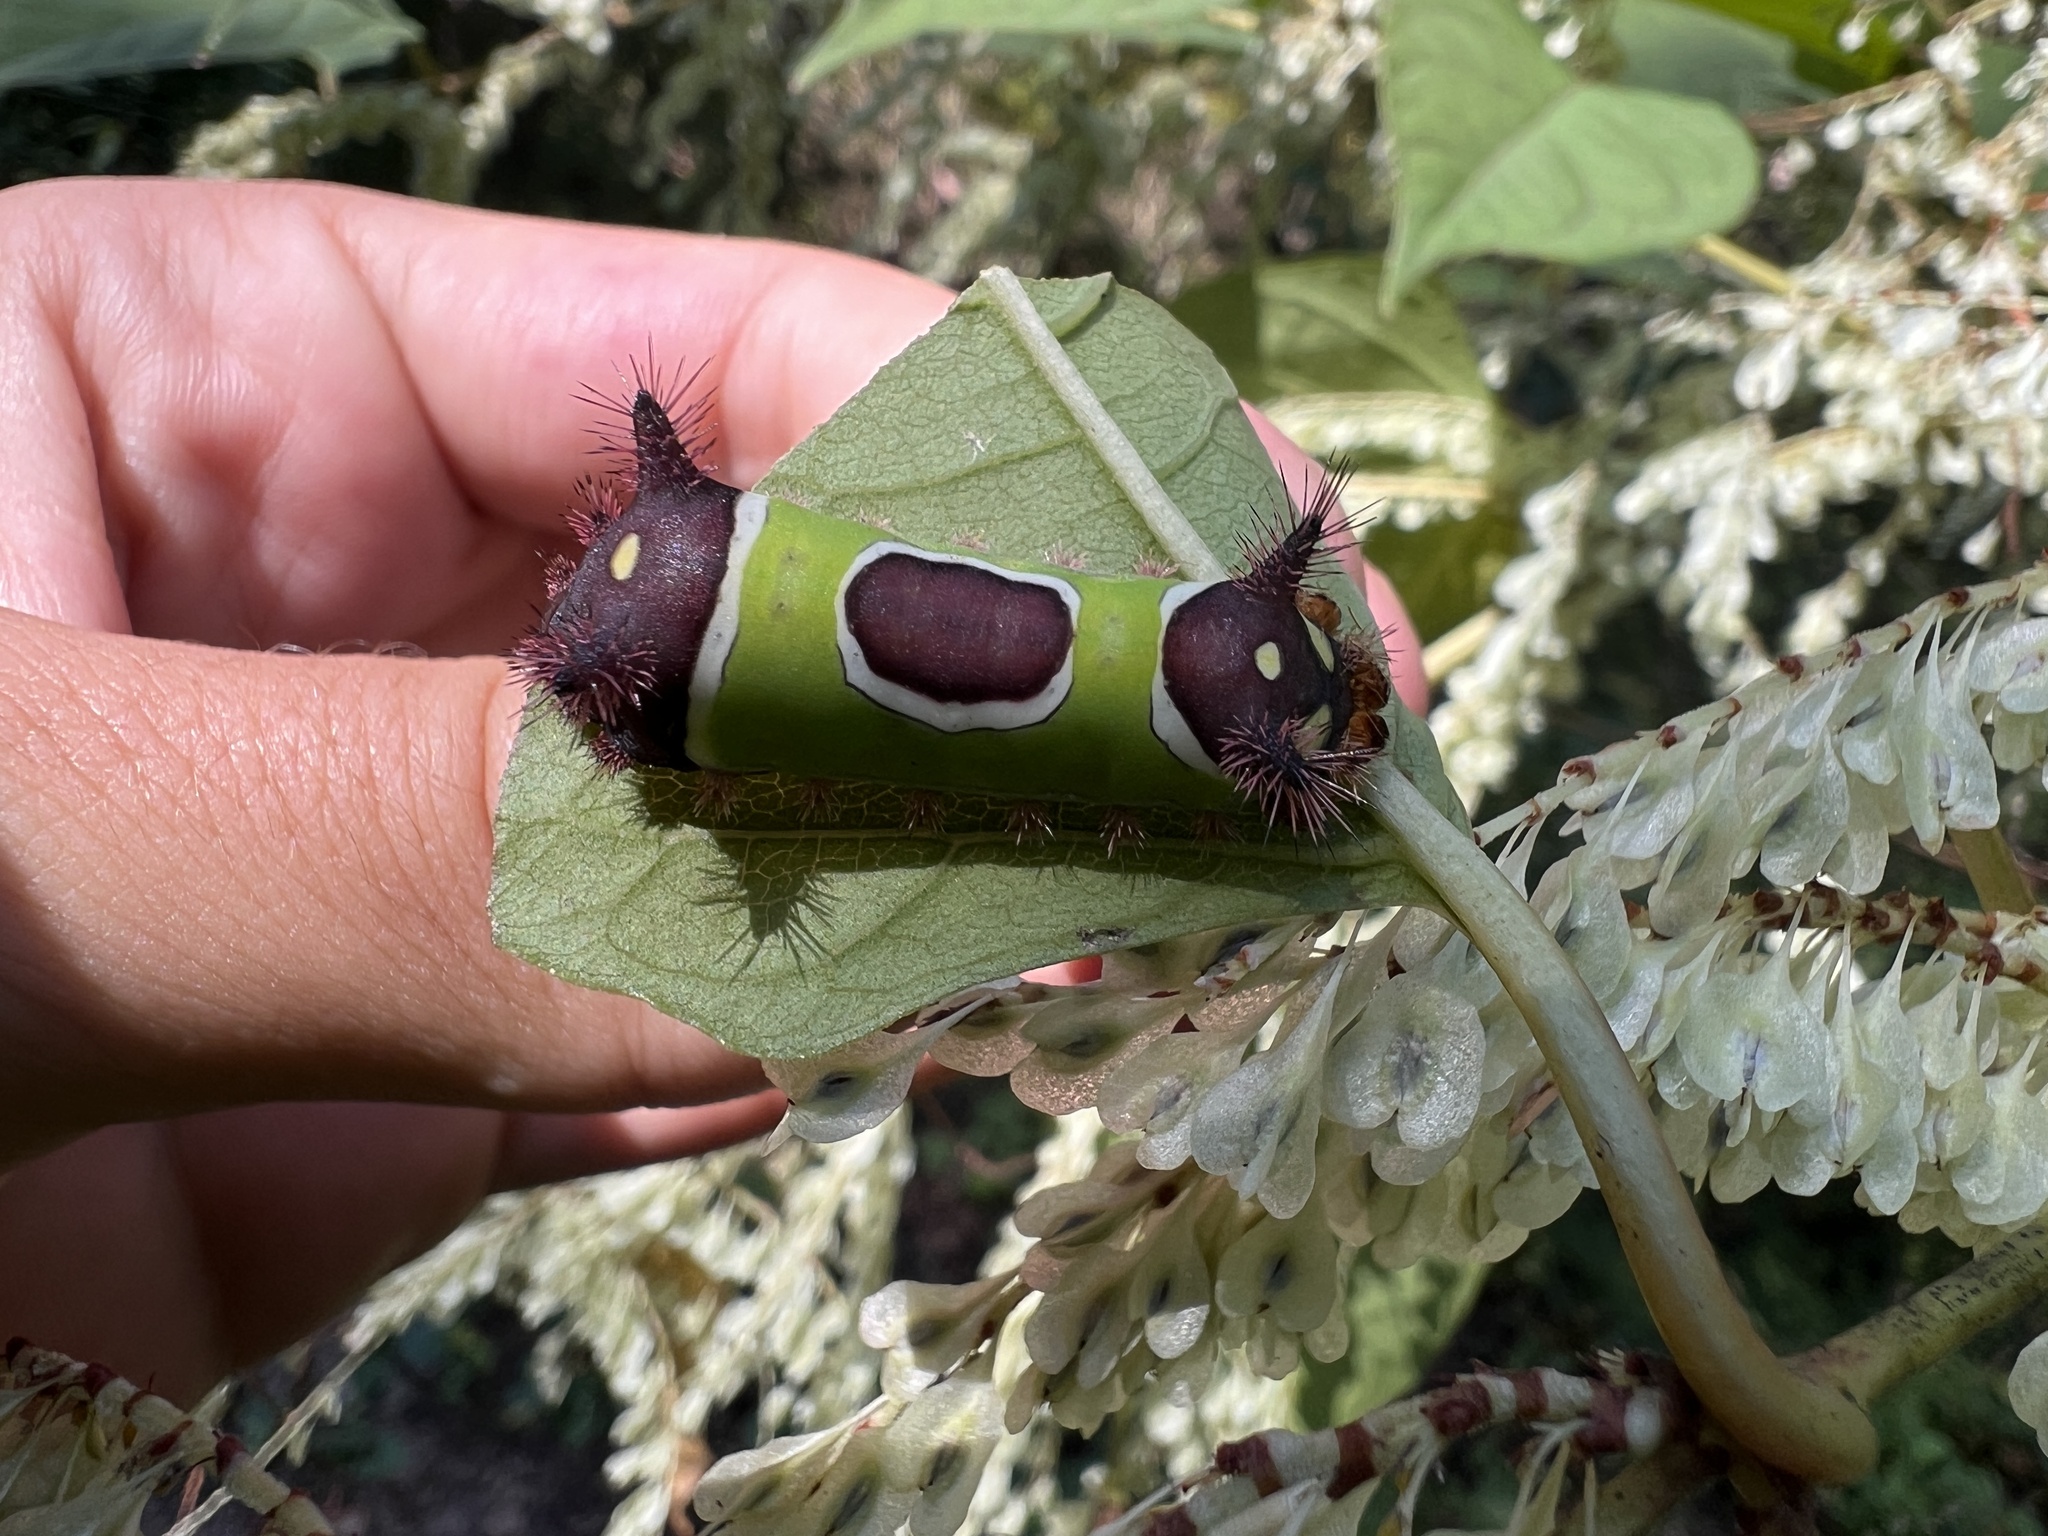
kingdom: Animalia
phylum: Arthropoda
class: Insecta
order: Lepidoptera
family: Limacodidae
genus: Acharia
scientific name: Acharia stimulea
